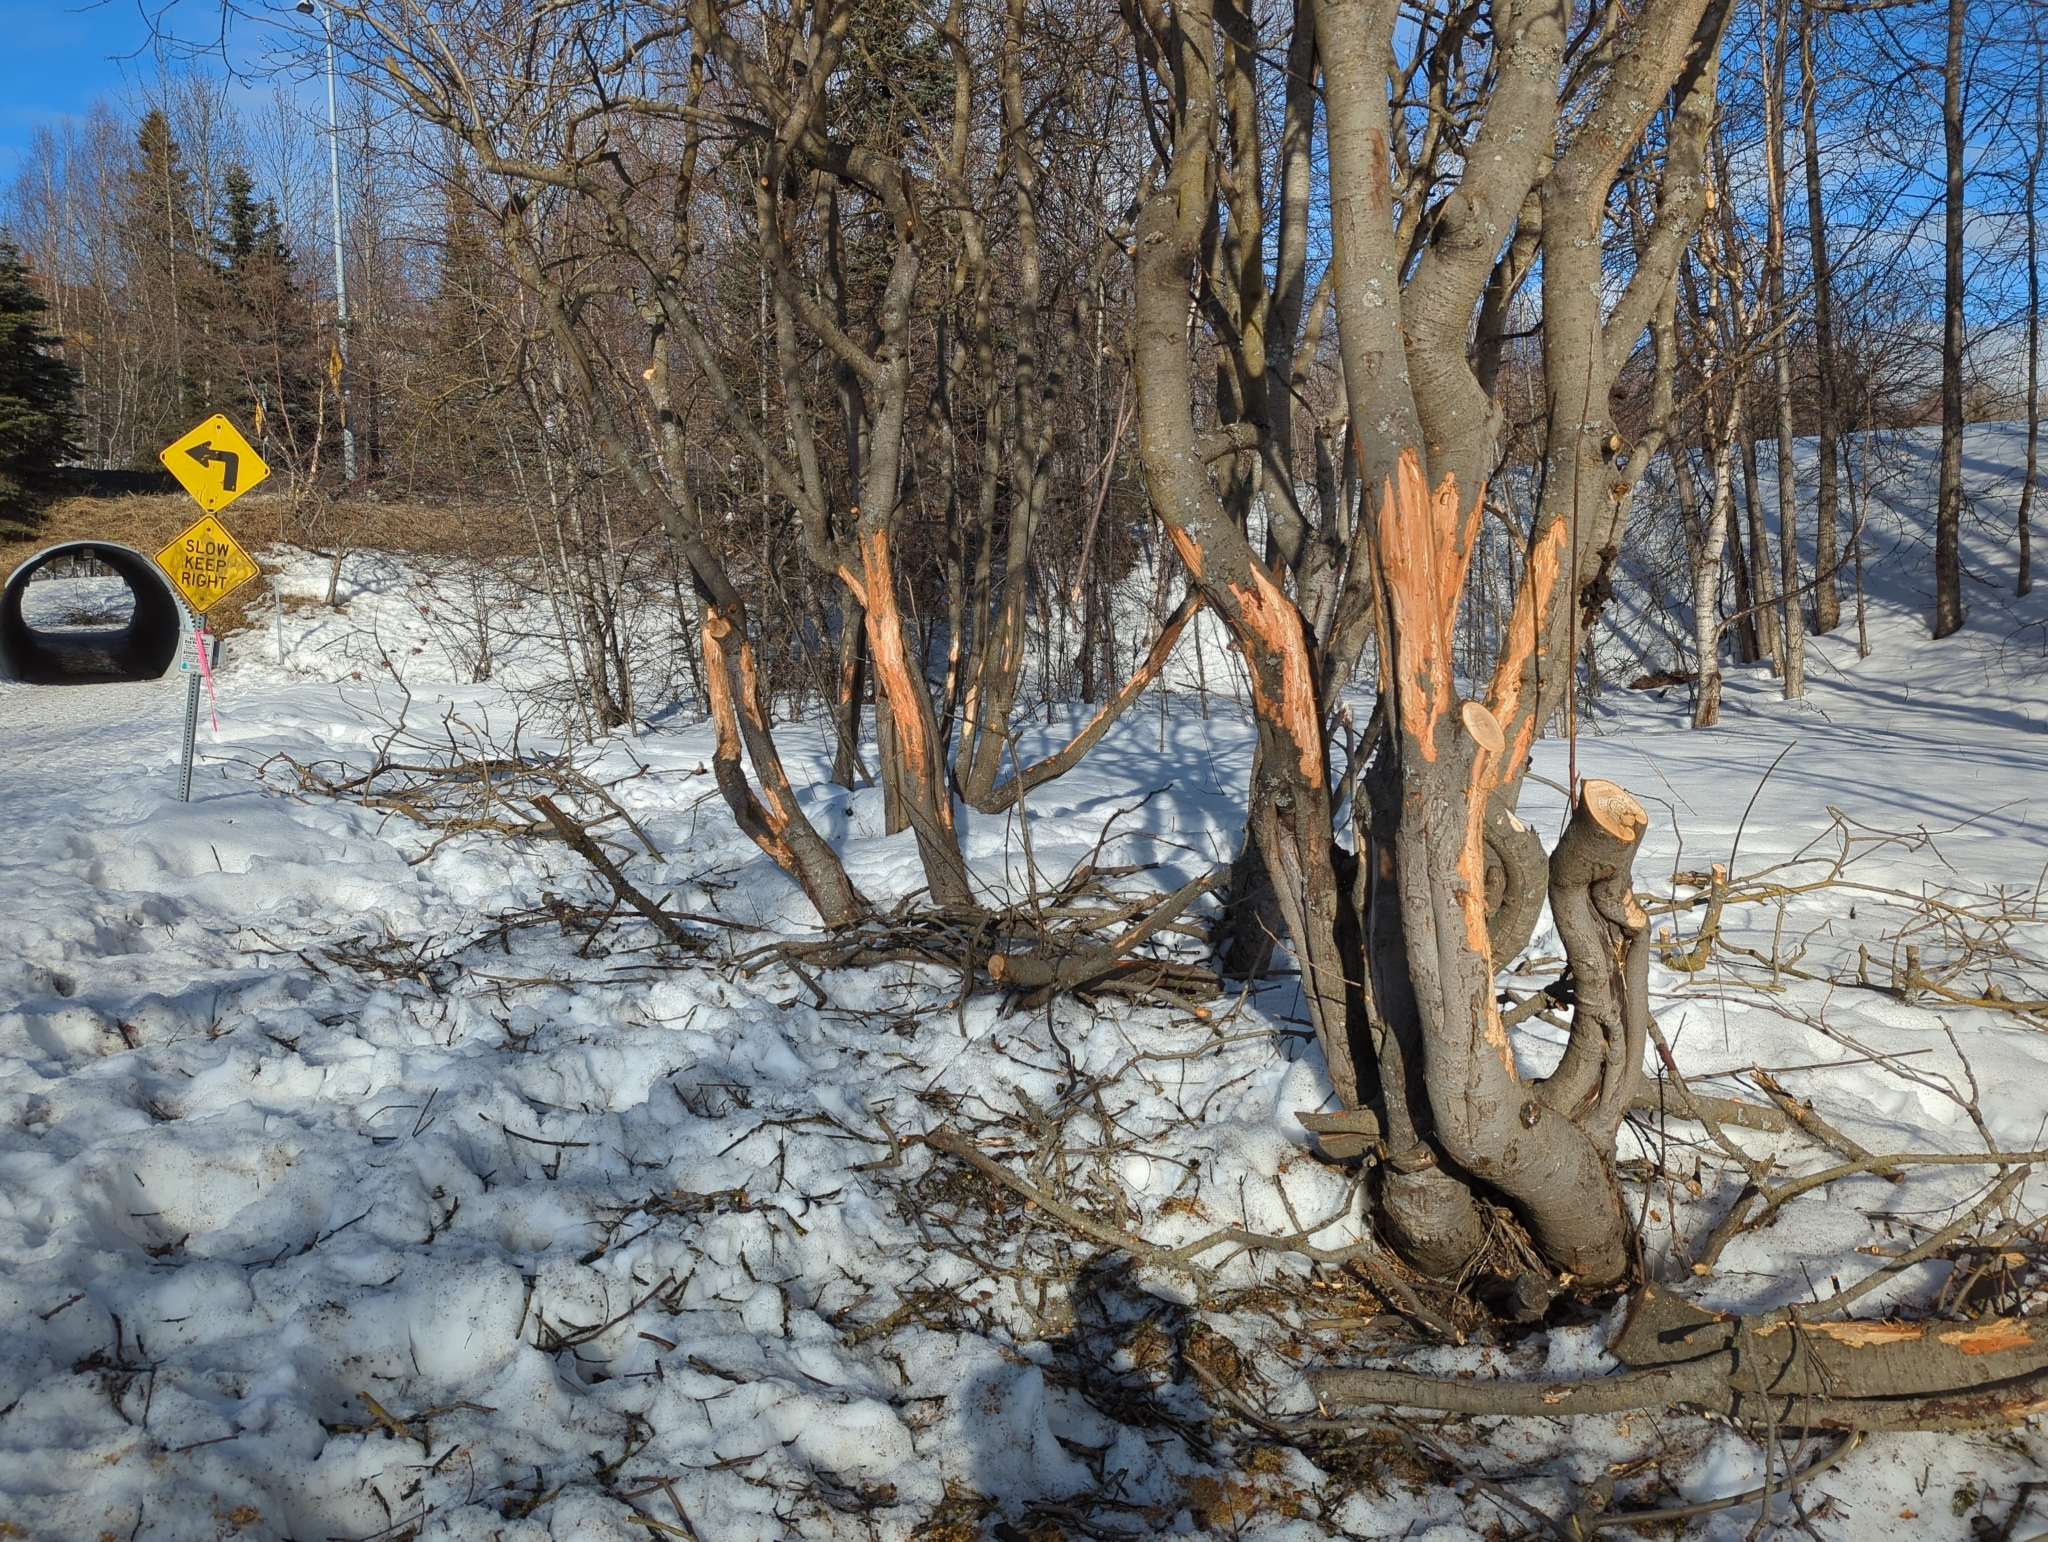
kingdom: Animalia
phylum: Chordata
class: Mammalia
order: Artiodactyla
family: Cervidae
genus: Alces
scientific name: Alces alces
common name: Moose
